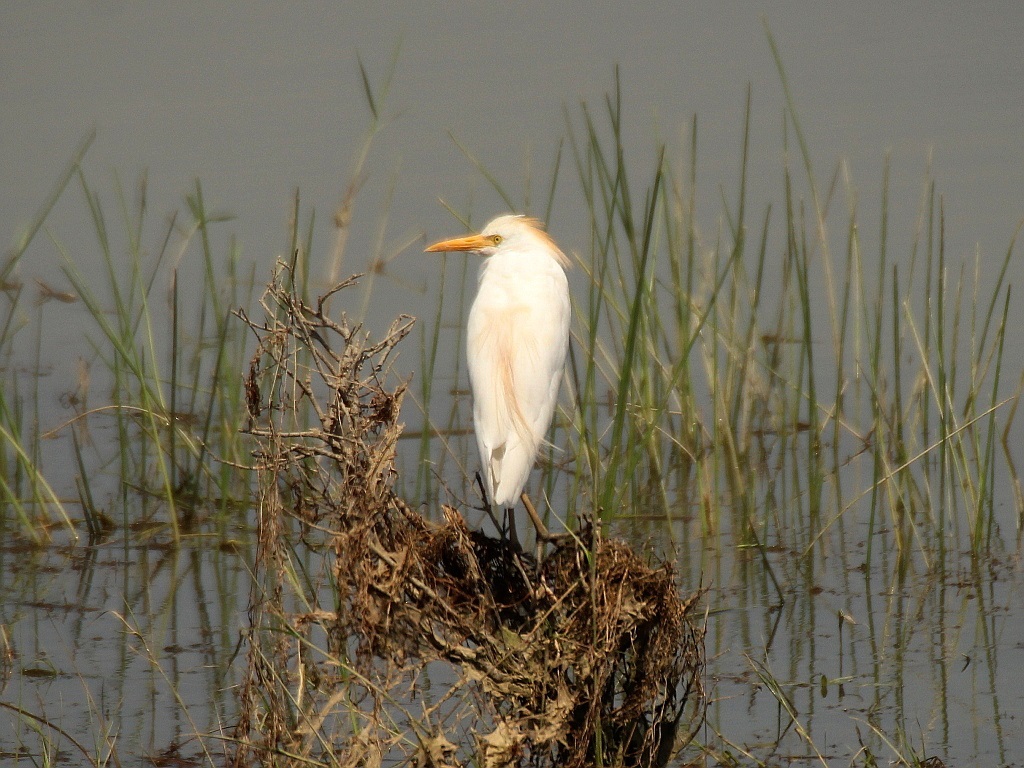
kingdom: Animalia
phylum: Chordata
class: Aves
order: Pelecaniformes
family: Ardeidae
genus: Bubulcus
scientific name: Bubulcus ibis
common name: Cattle egret
